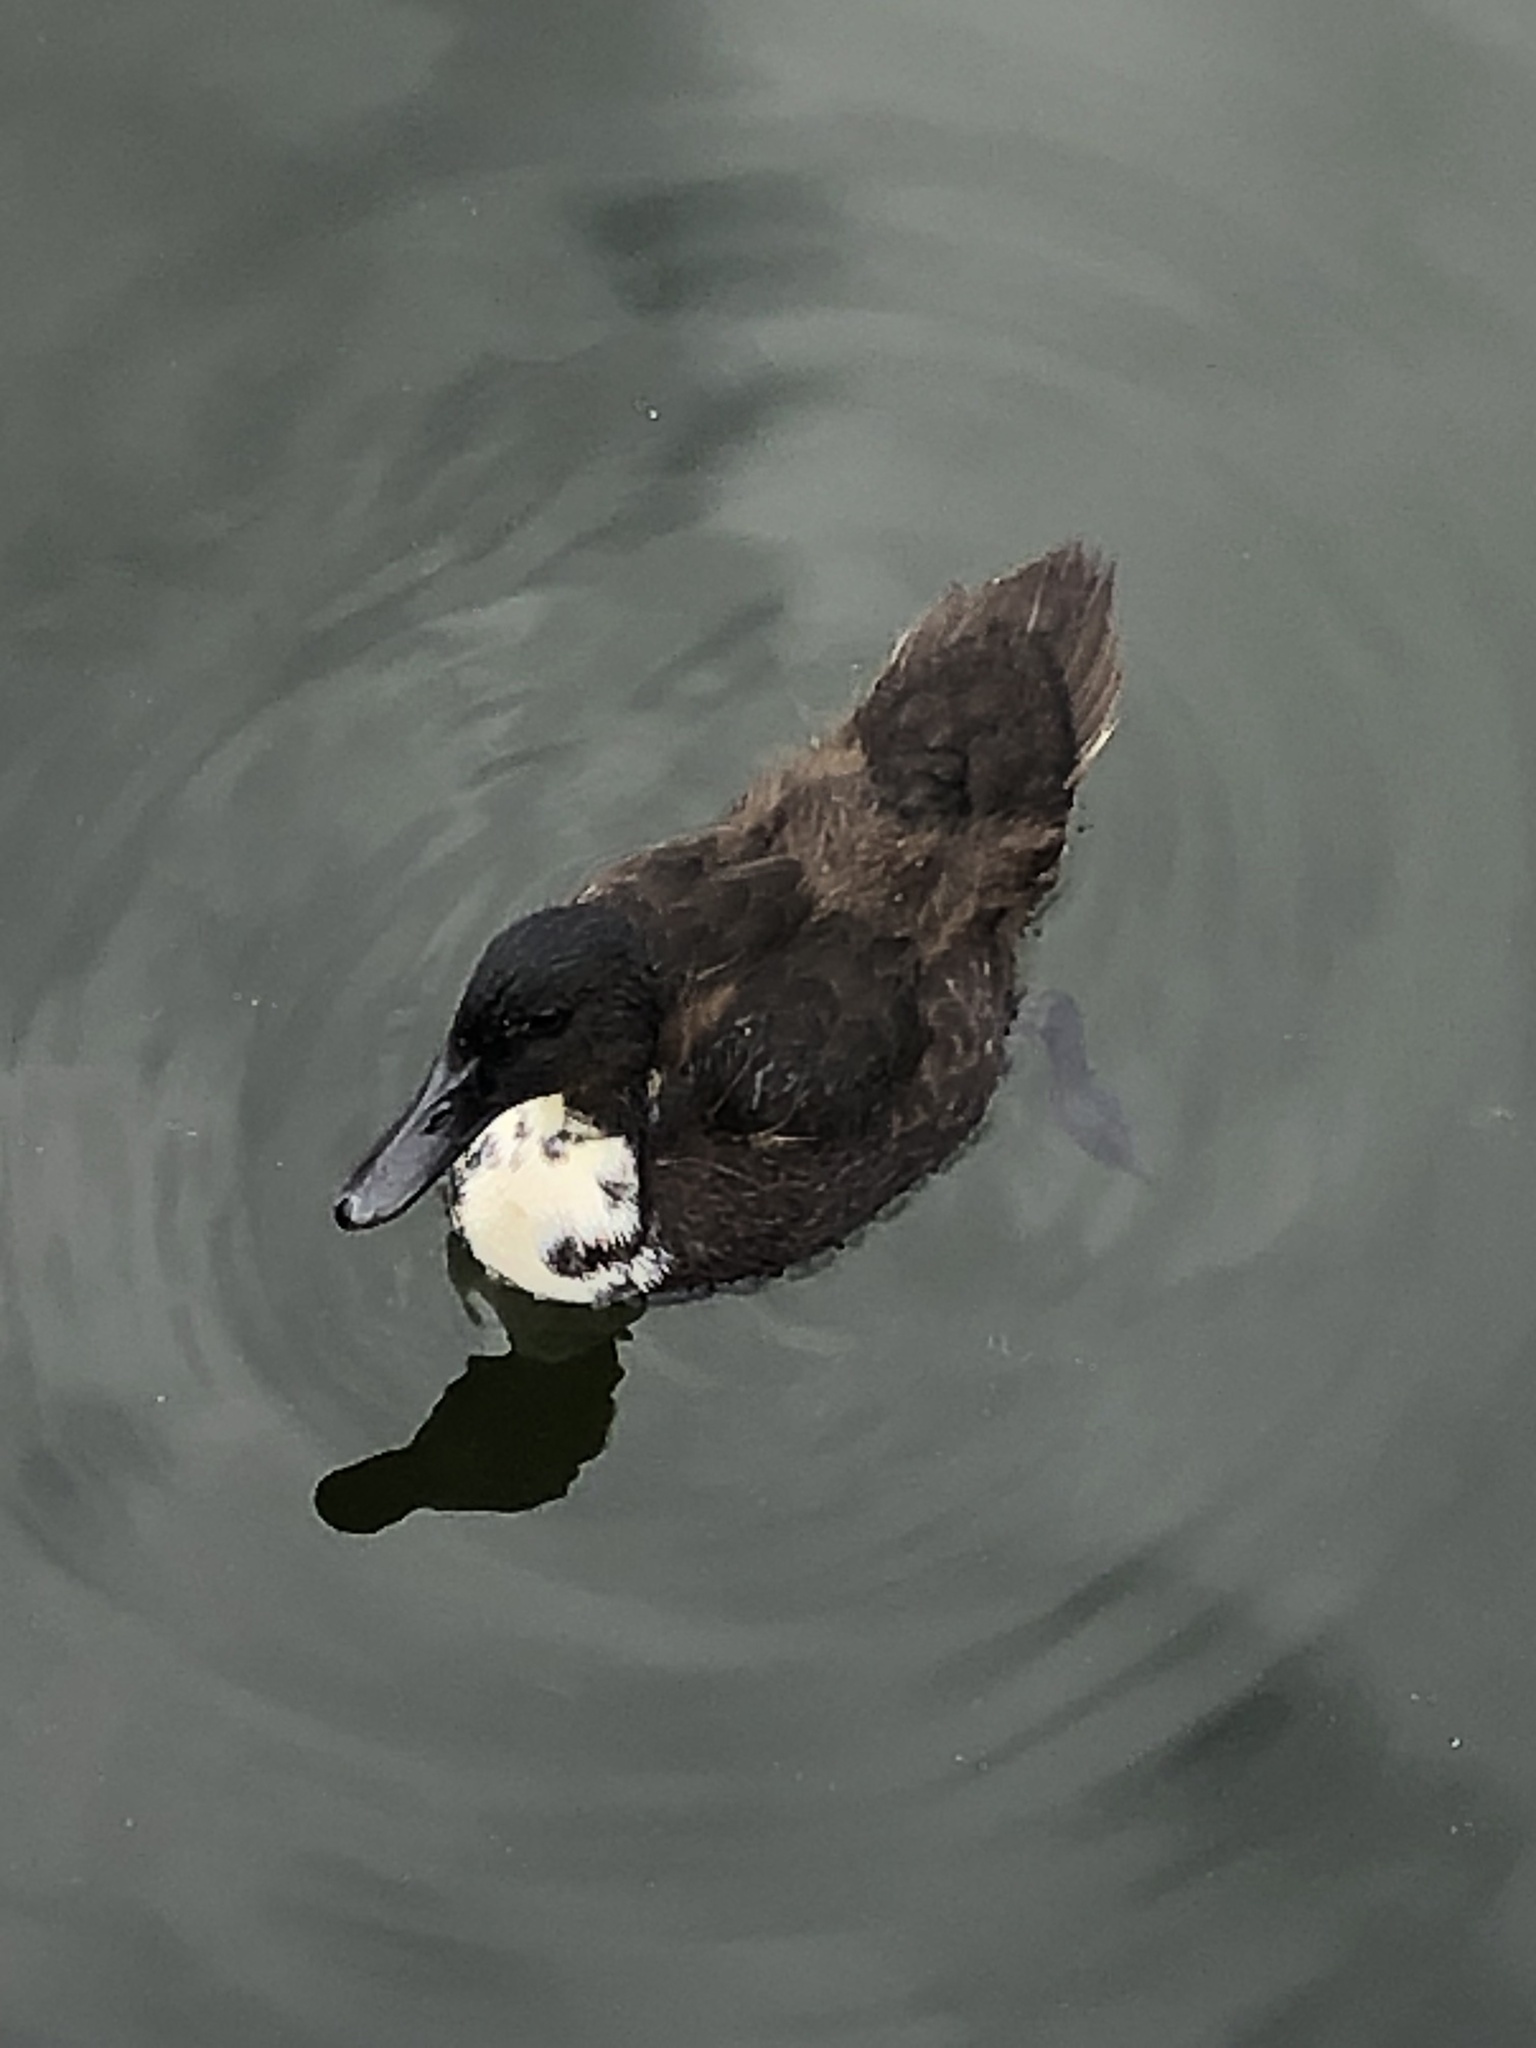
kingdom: Animalia
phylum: Chordata
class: Aves
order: Anseriformes
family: Anatidae
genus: Anas
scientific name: Anas platyrhynchos
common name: Mallard
